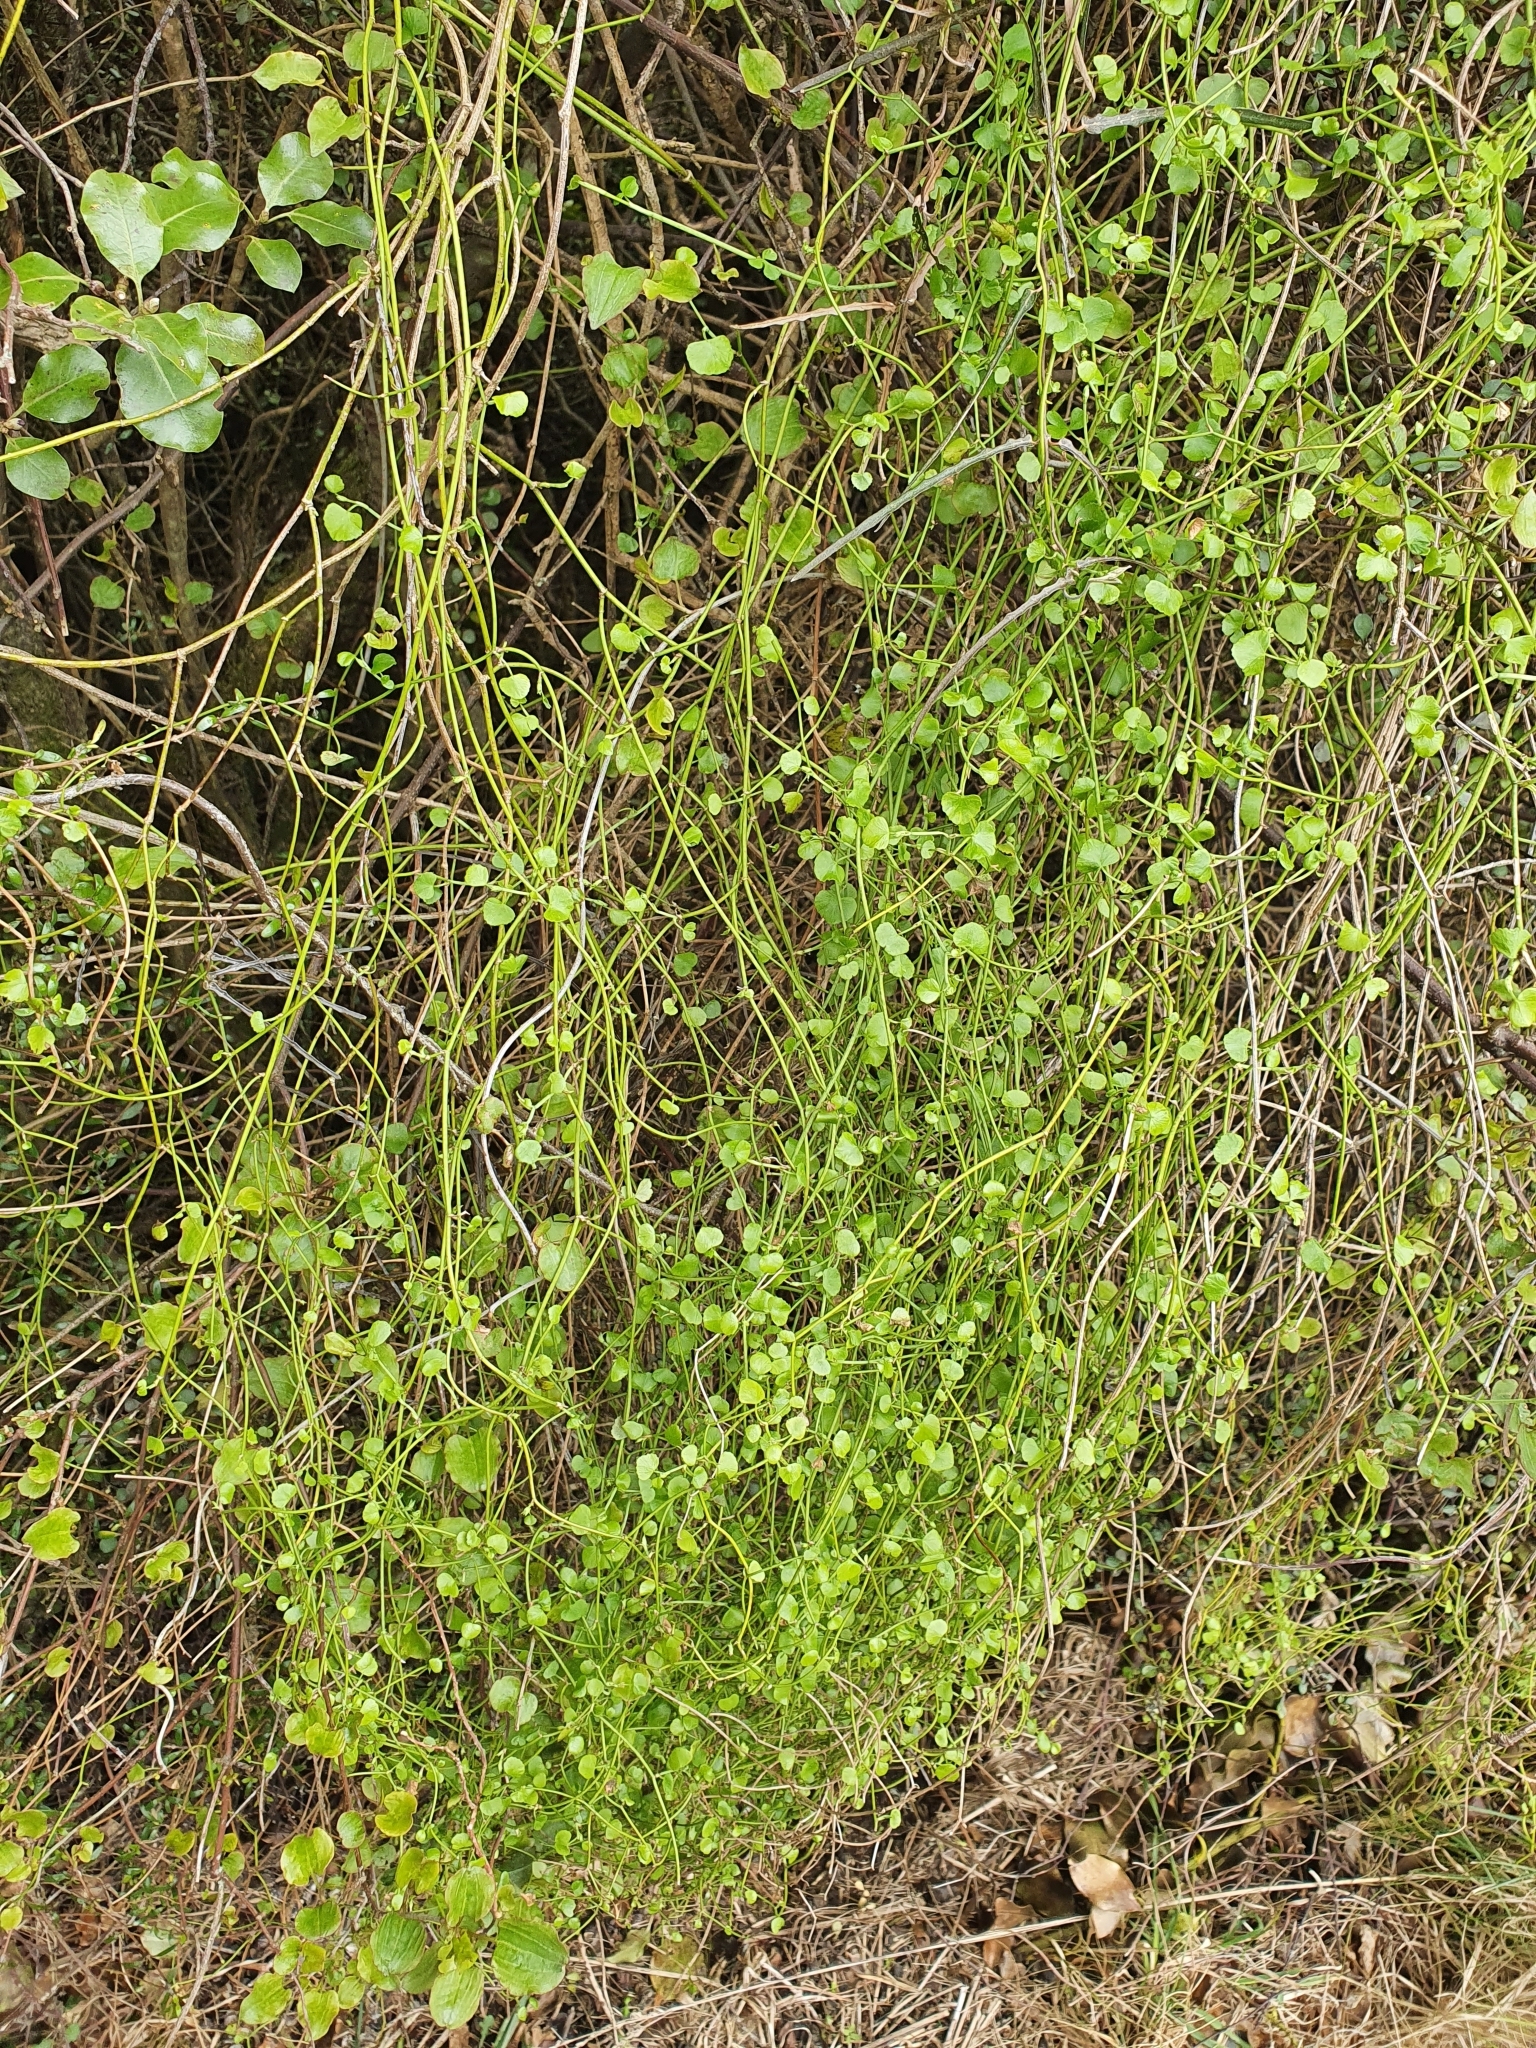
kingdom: Plantae
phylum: Tracheophyta
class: Magnoliopsida
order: Apiales
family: Apiaceae
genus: Scandia
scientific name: Scandia geniculata
